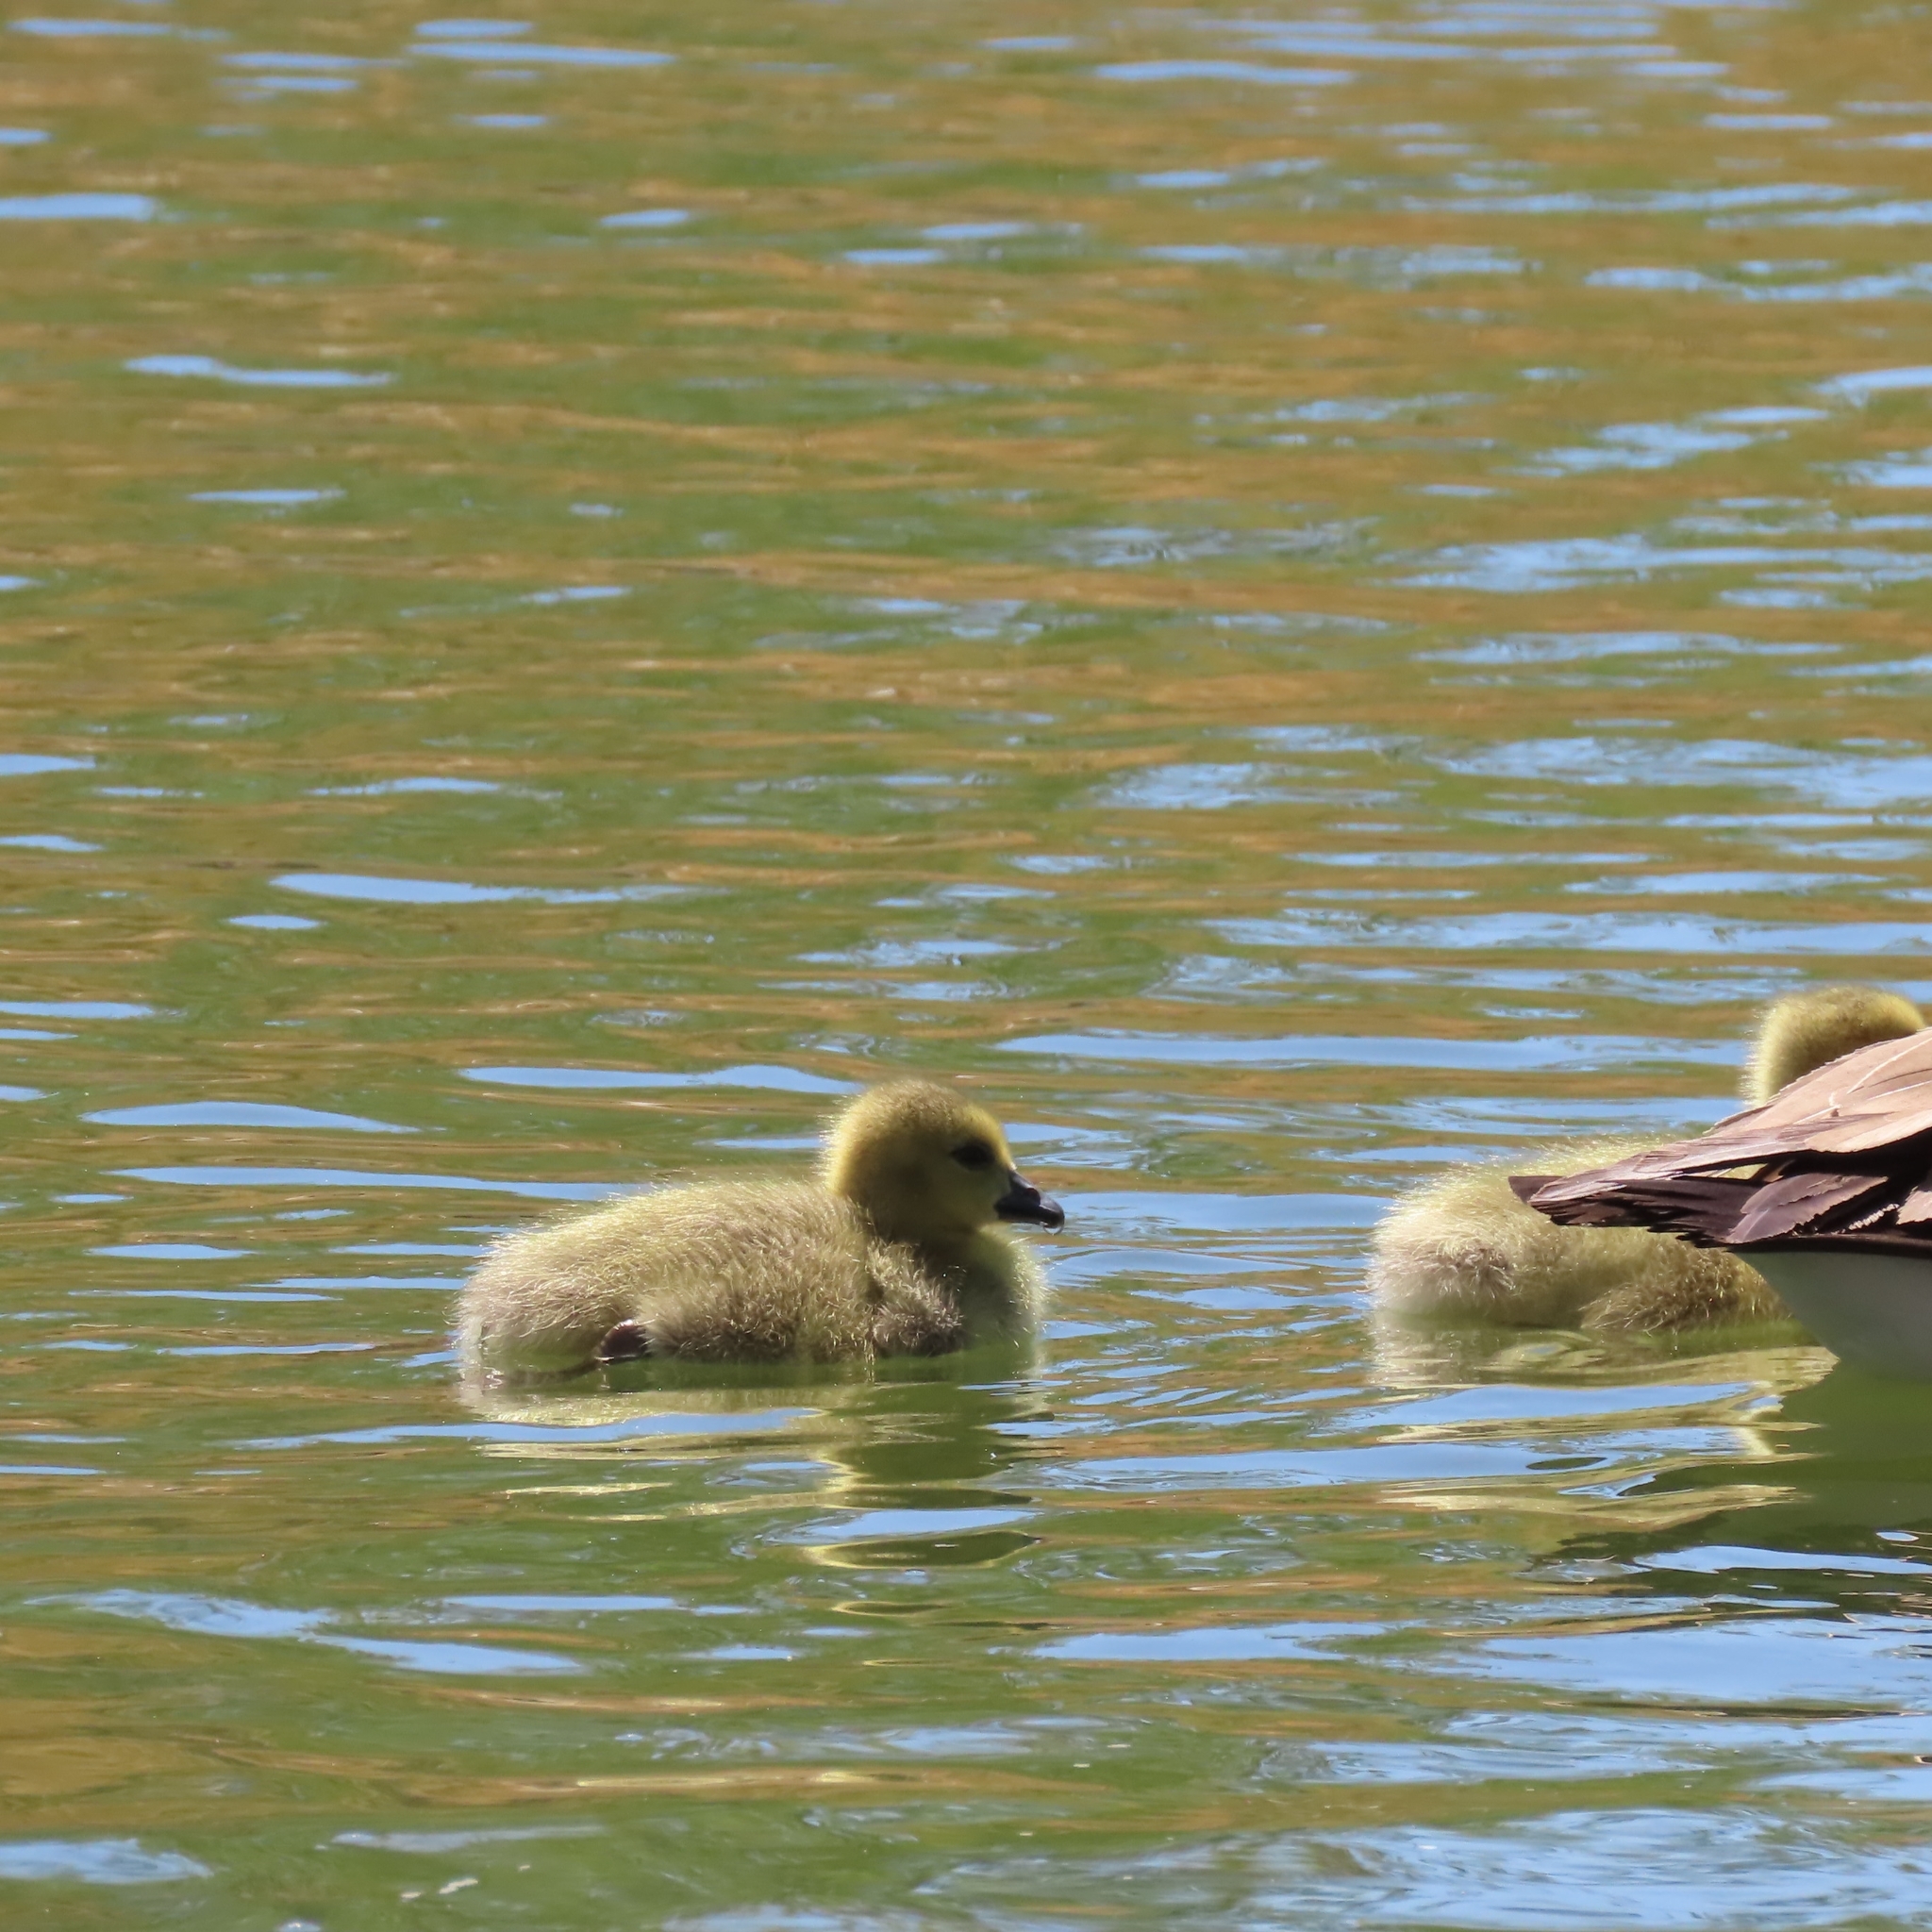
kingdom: Animalia
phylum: Chordata
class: Aves
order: Anseriformes
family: Anatidae
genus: Branta
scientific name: Branta canadensis
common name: Canada goose
